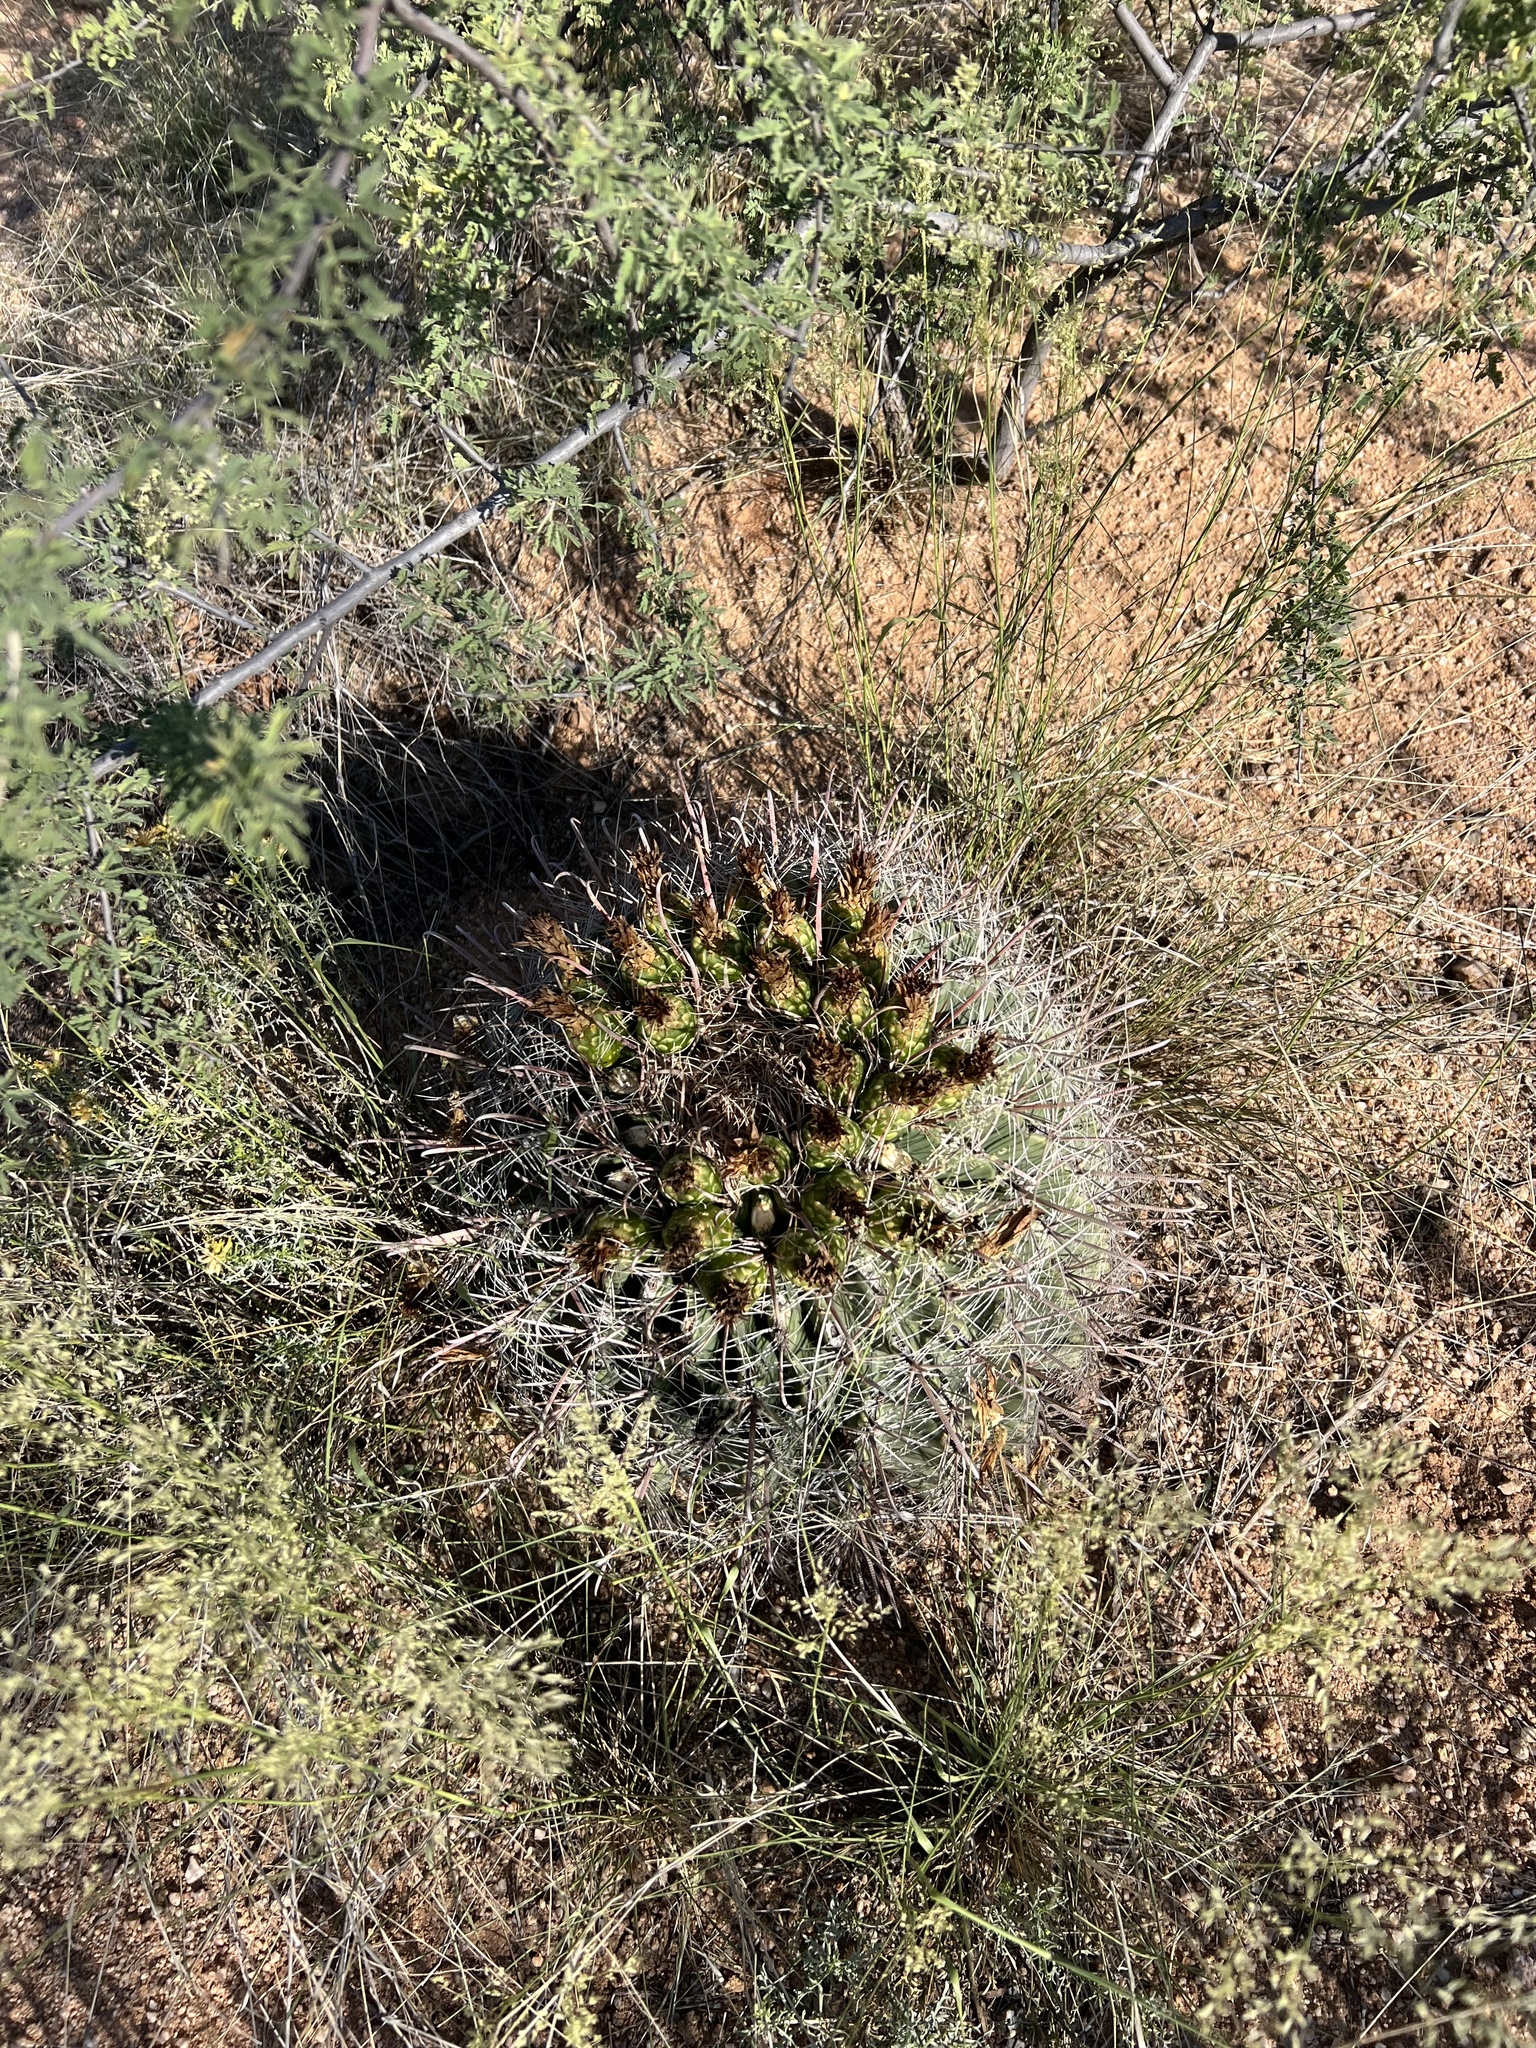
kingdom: Plantae
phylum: Tracheophyta
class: Magnoliopsida
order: Caryophyllales
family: Cactaceae
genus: Ferocactus
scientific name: Ferocactus wislizeni
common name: Candy barrel cactus
